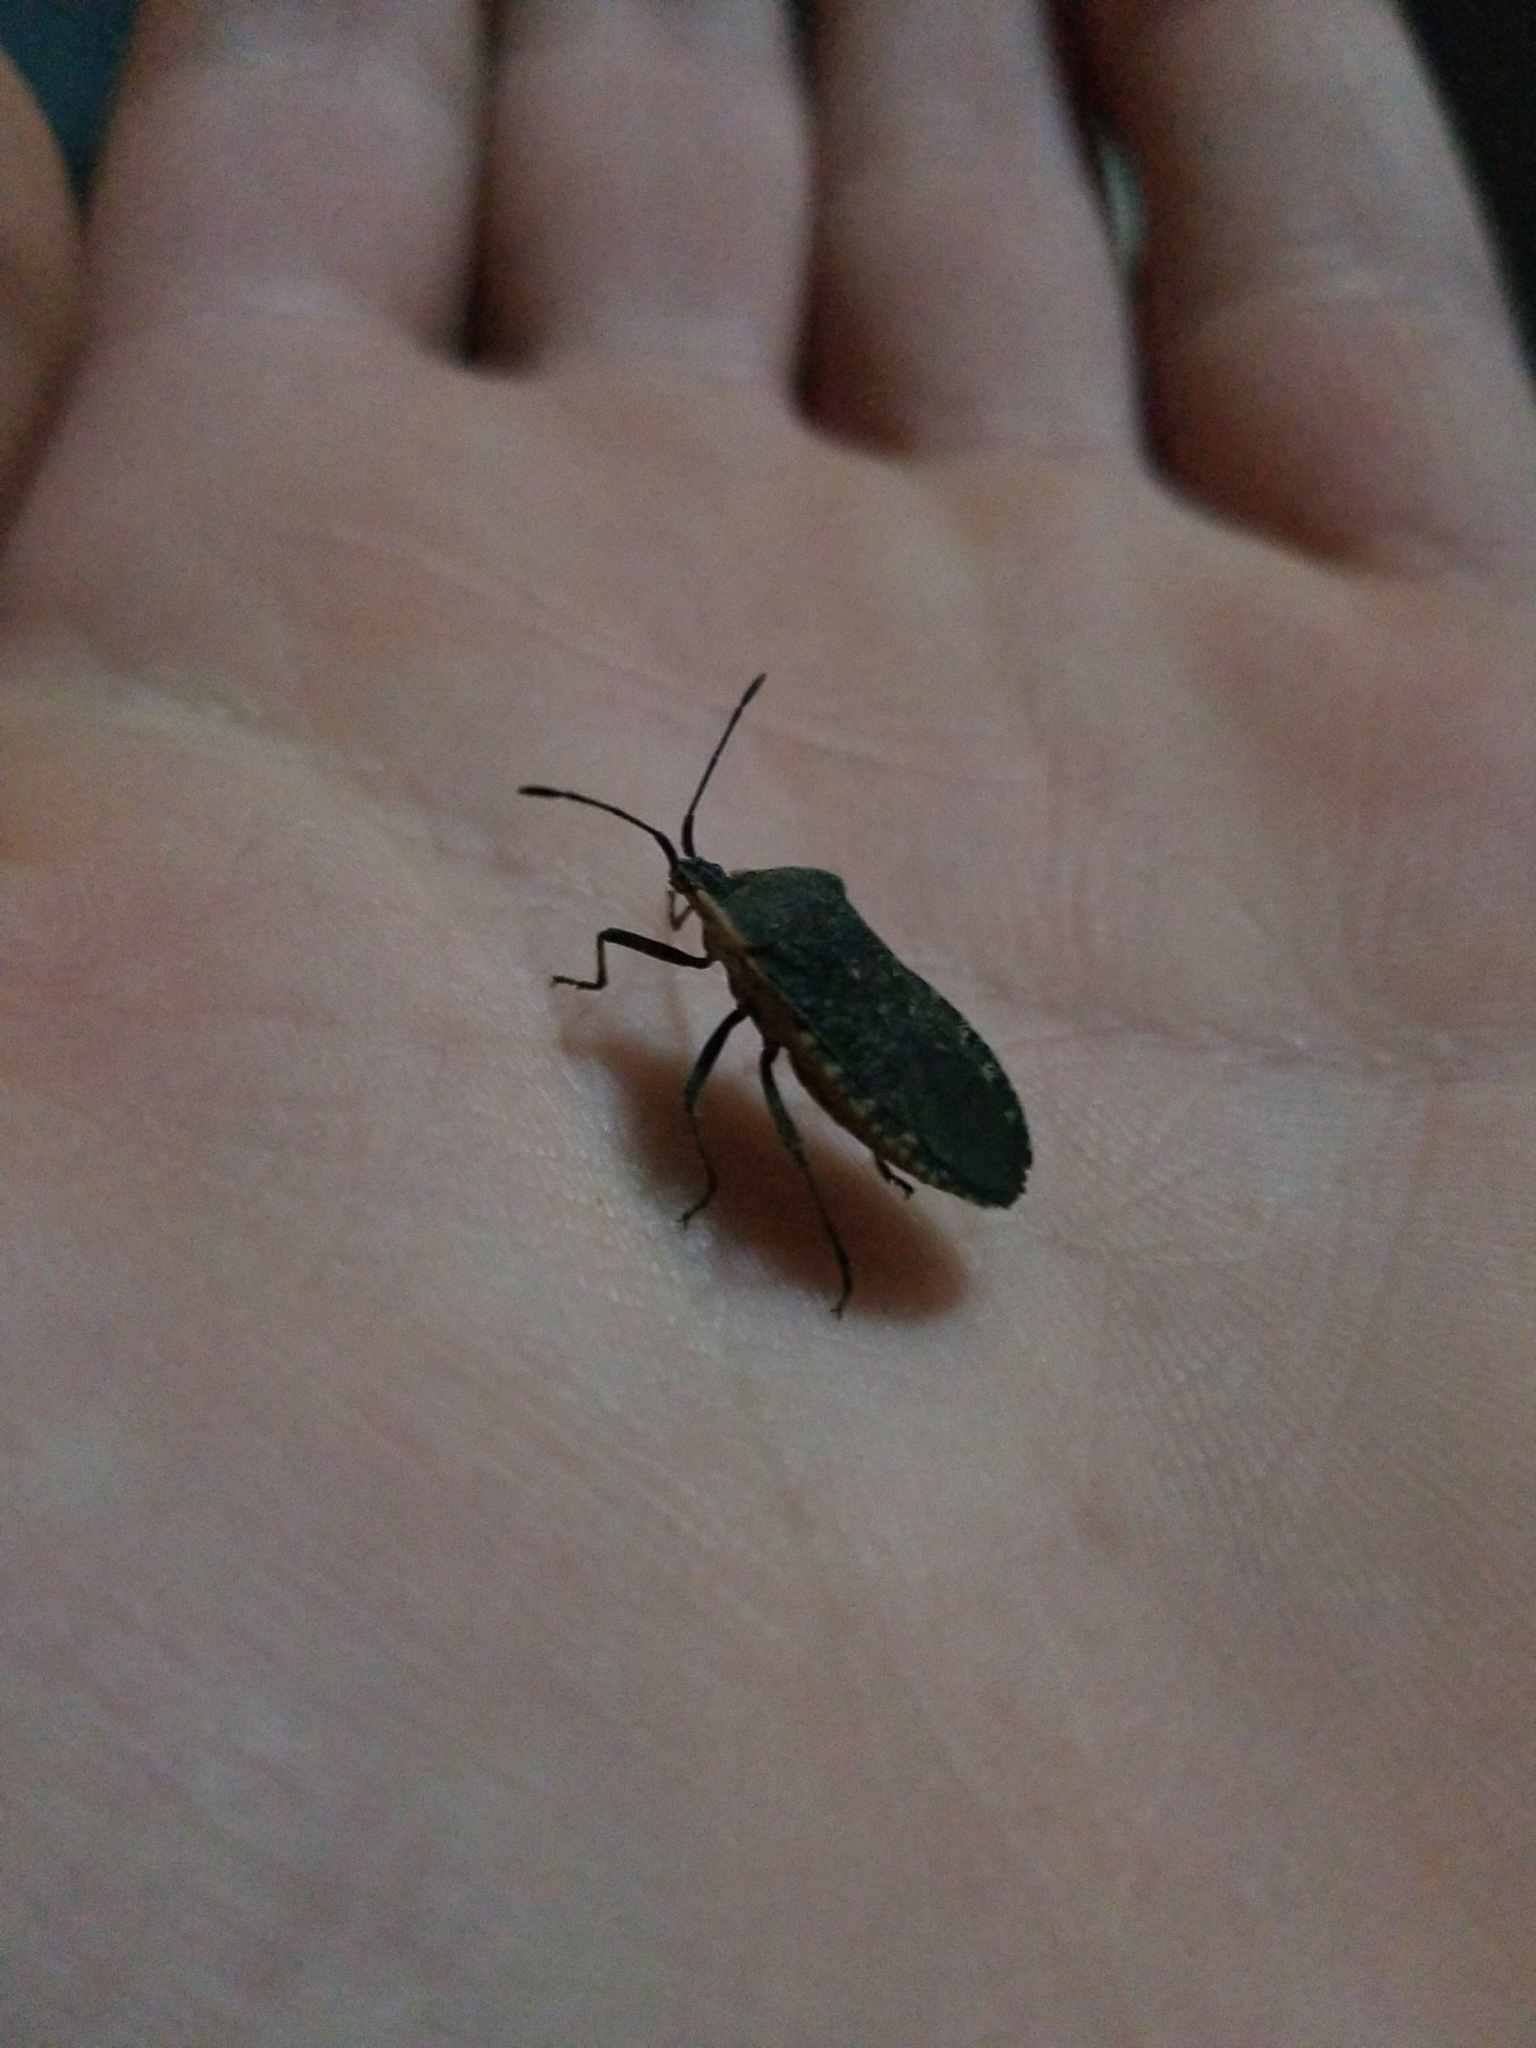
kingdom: Animalia
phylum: Arthropoda
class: Insecta
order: Hemiptera
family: Coreidae
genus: Anasa
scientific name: Anasa tristis
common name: Squash bug
